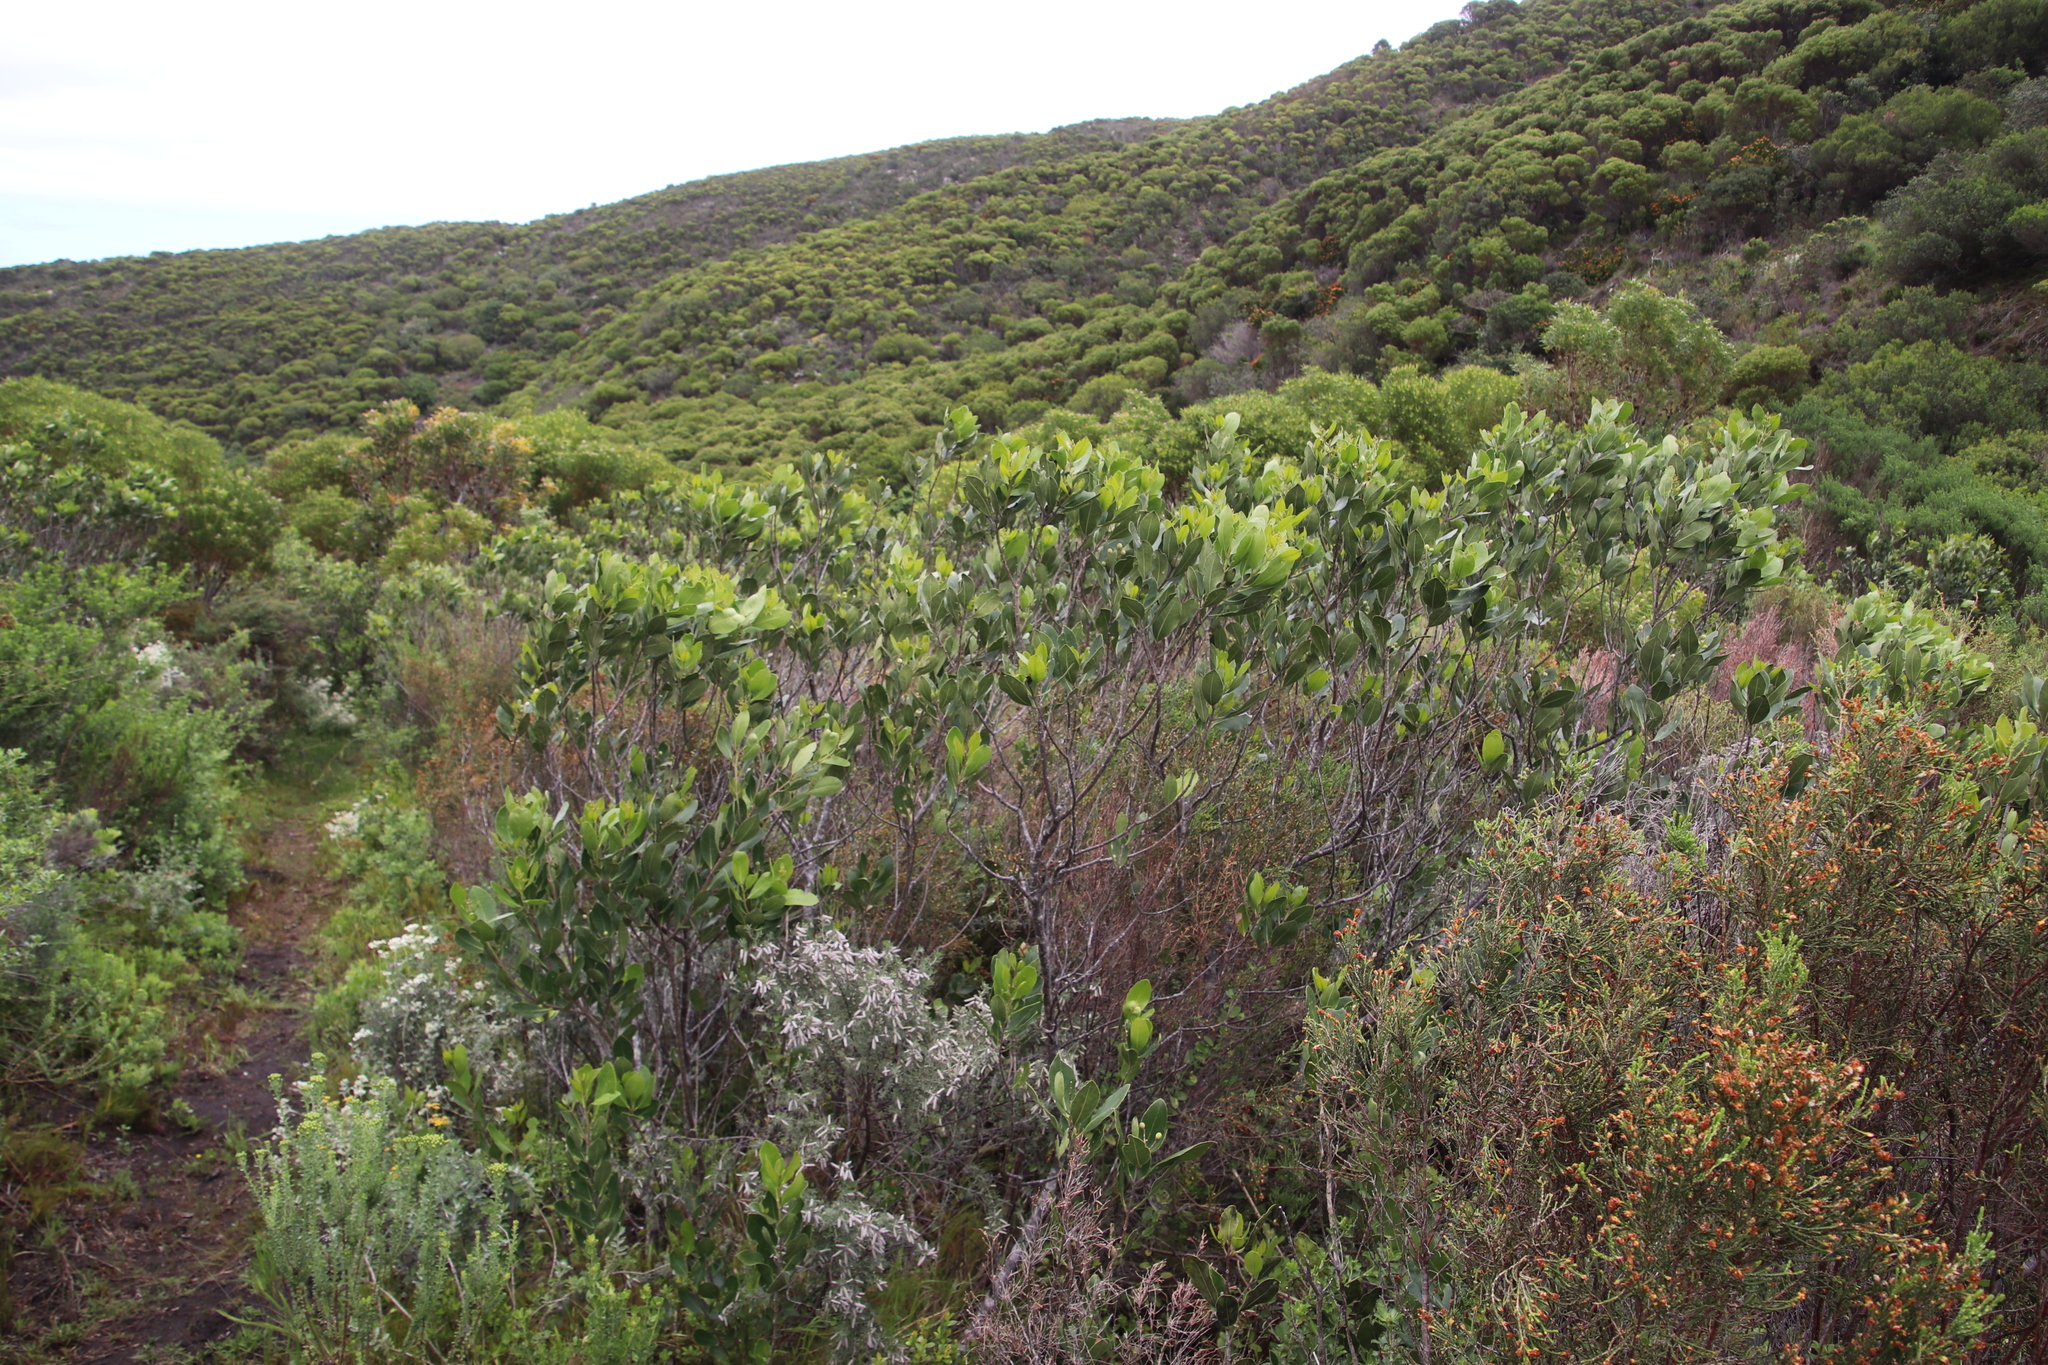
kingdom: Plantae
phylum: Tracheophyta
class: Magnoliopsida
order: Lamiales
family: Oleaceae
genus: Olea
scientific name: Olea capensis
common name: Black ironwood
